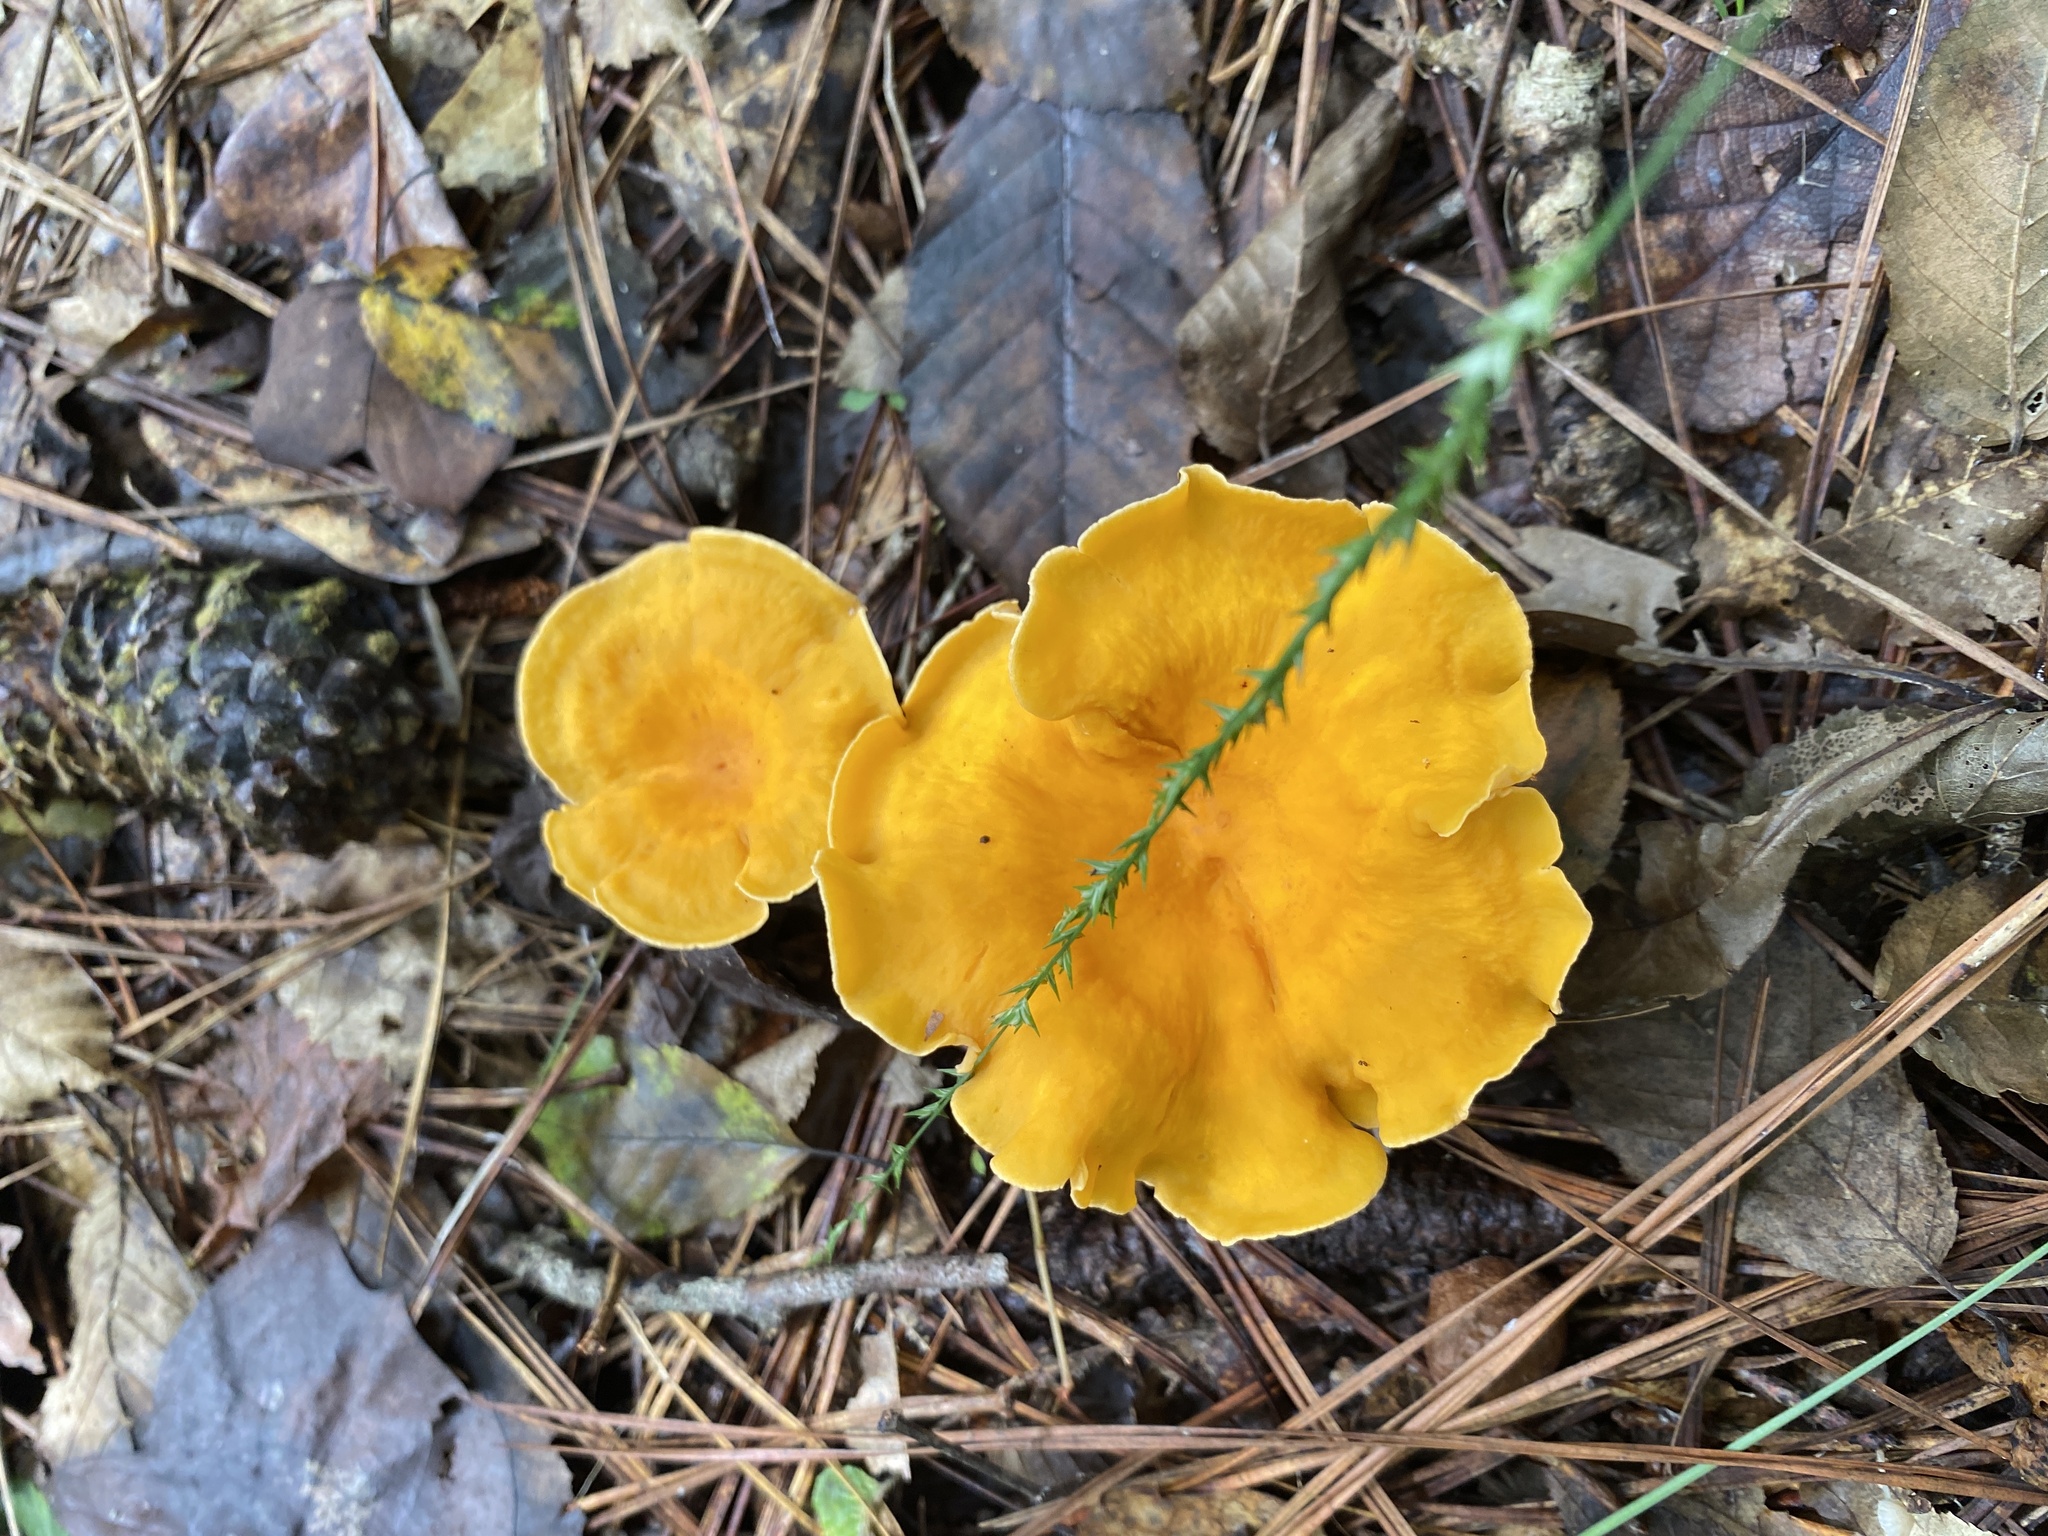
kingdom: Fungi
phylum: Basidiomycota
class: Agaricomycetes
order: Cantharellales
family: Hydnaceae
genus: Cantharellus
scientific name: Cantharellus lateritius
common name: Smooth chanterelle
